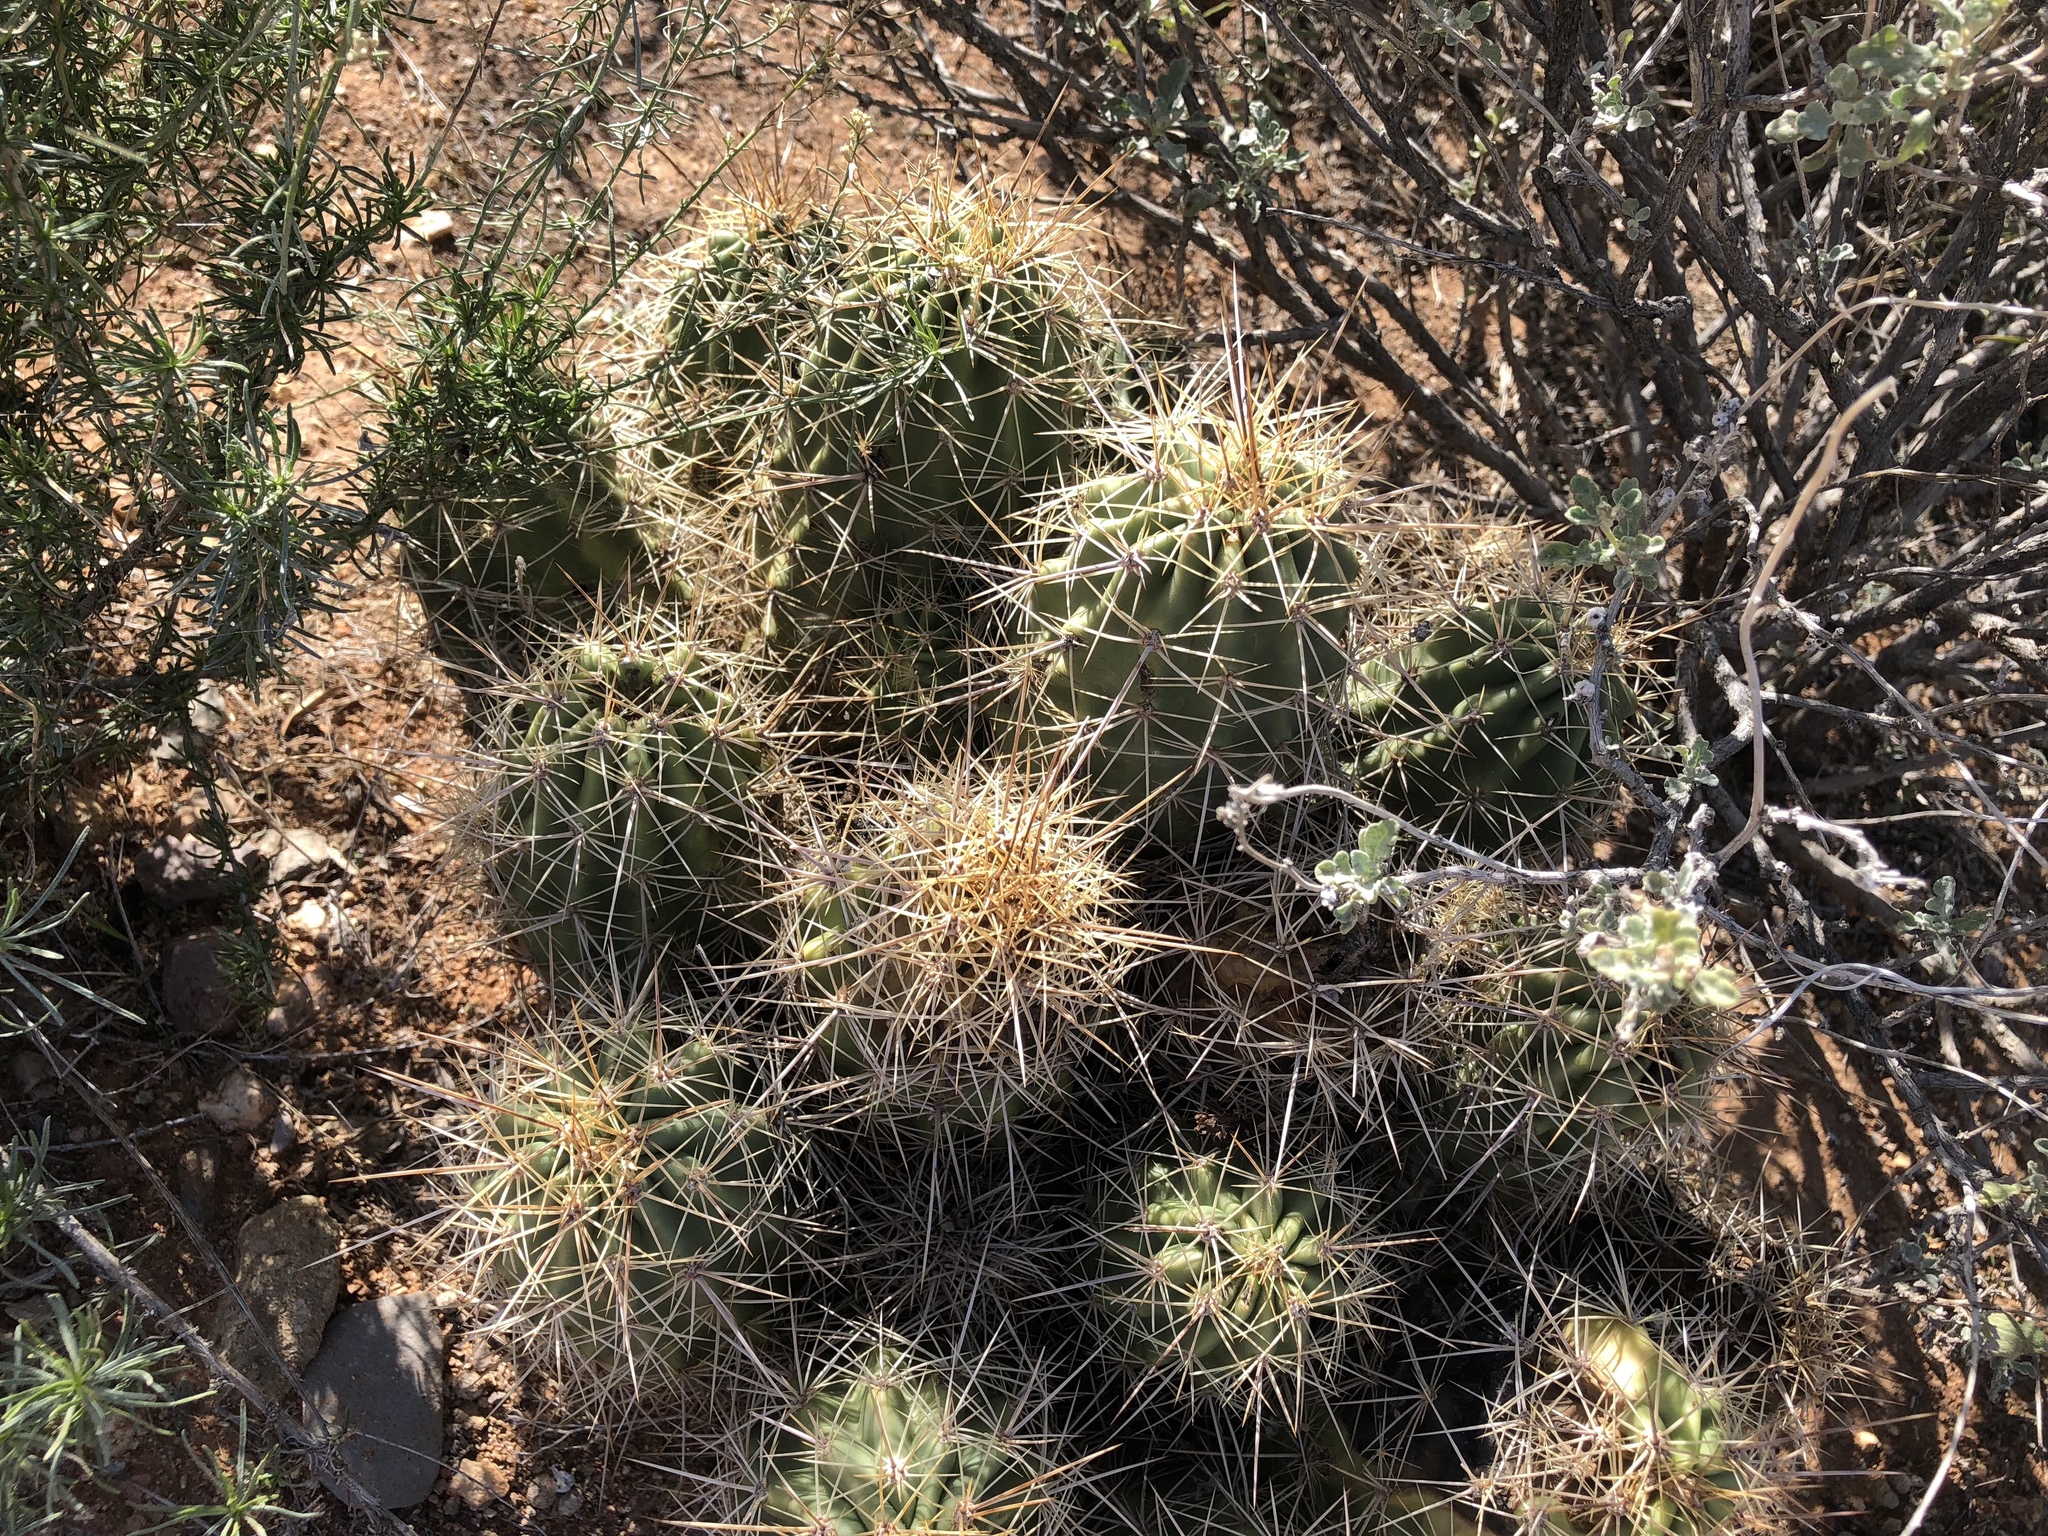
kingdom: Plantae
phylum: Tracheophyta
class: Magnoliopsida
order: Caryophyllales
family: Cactaceae
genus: Echinocereus
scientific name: Echinocereus coccineus
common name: Scarlet hedgehog cactus
